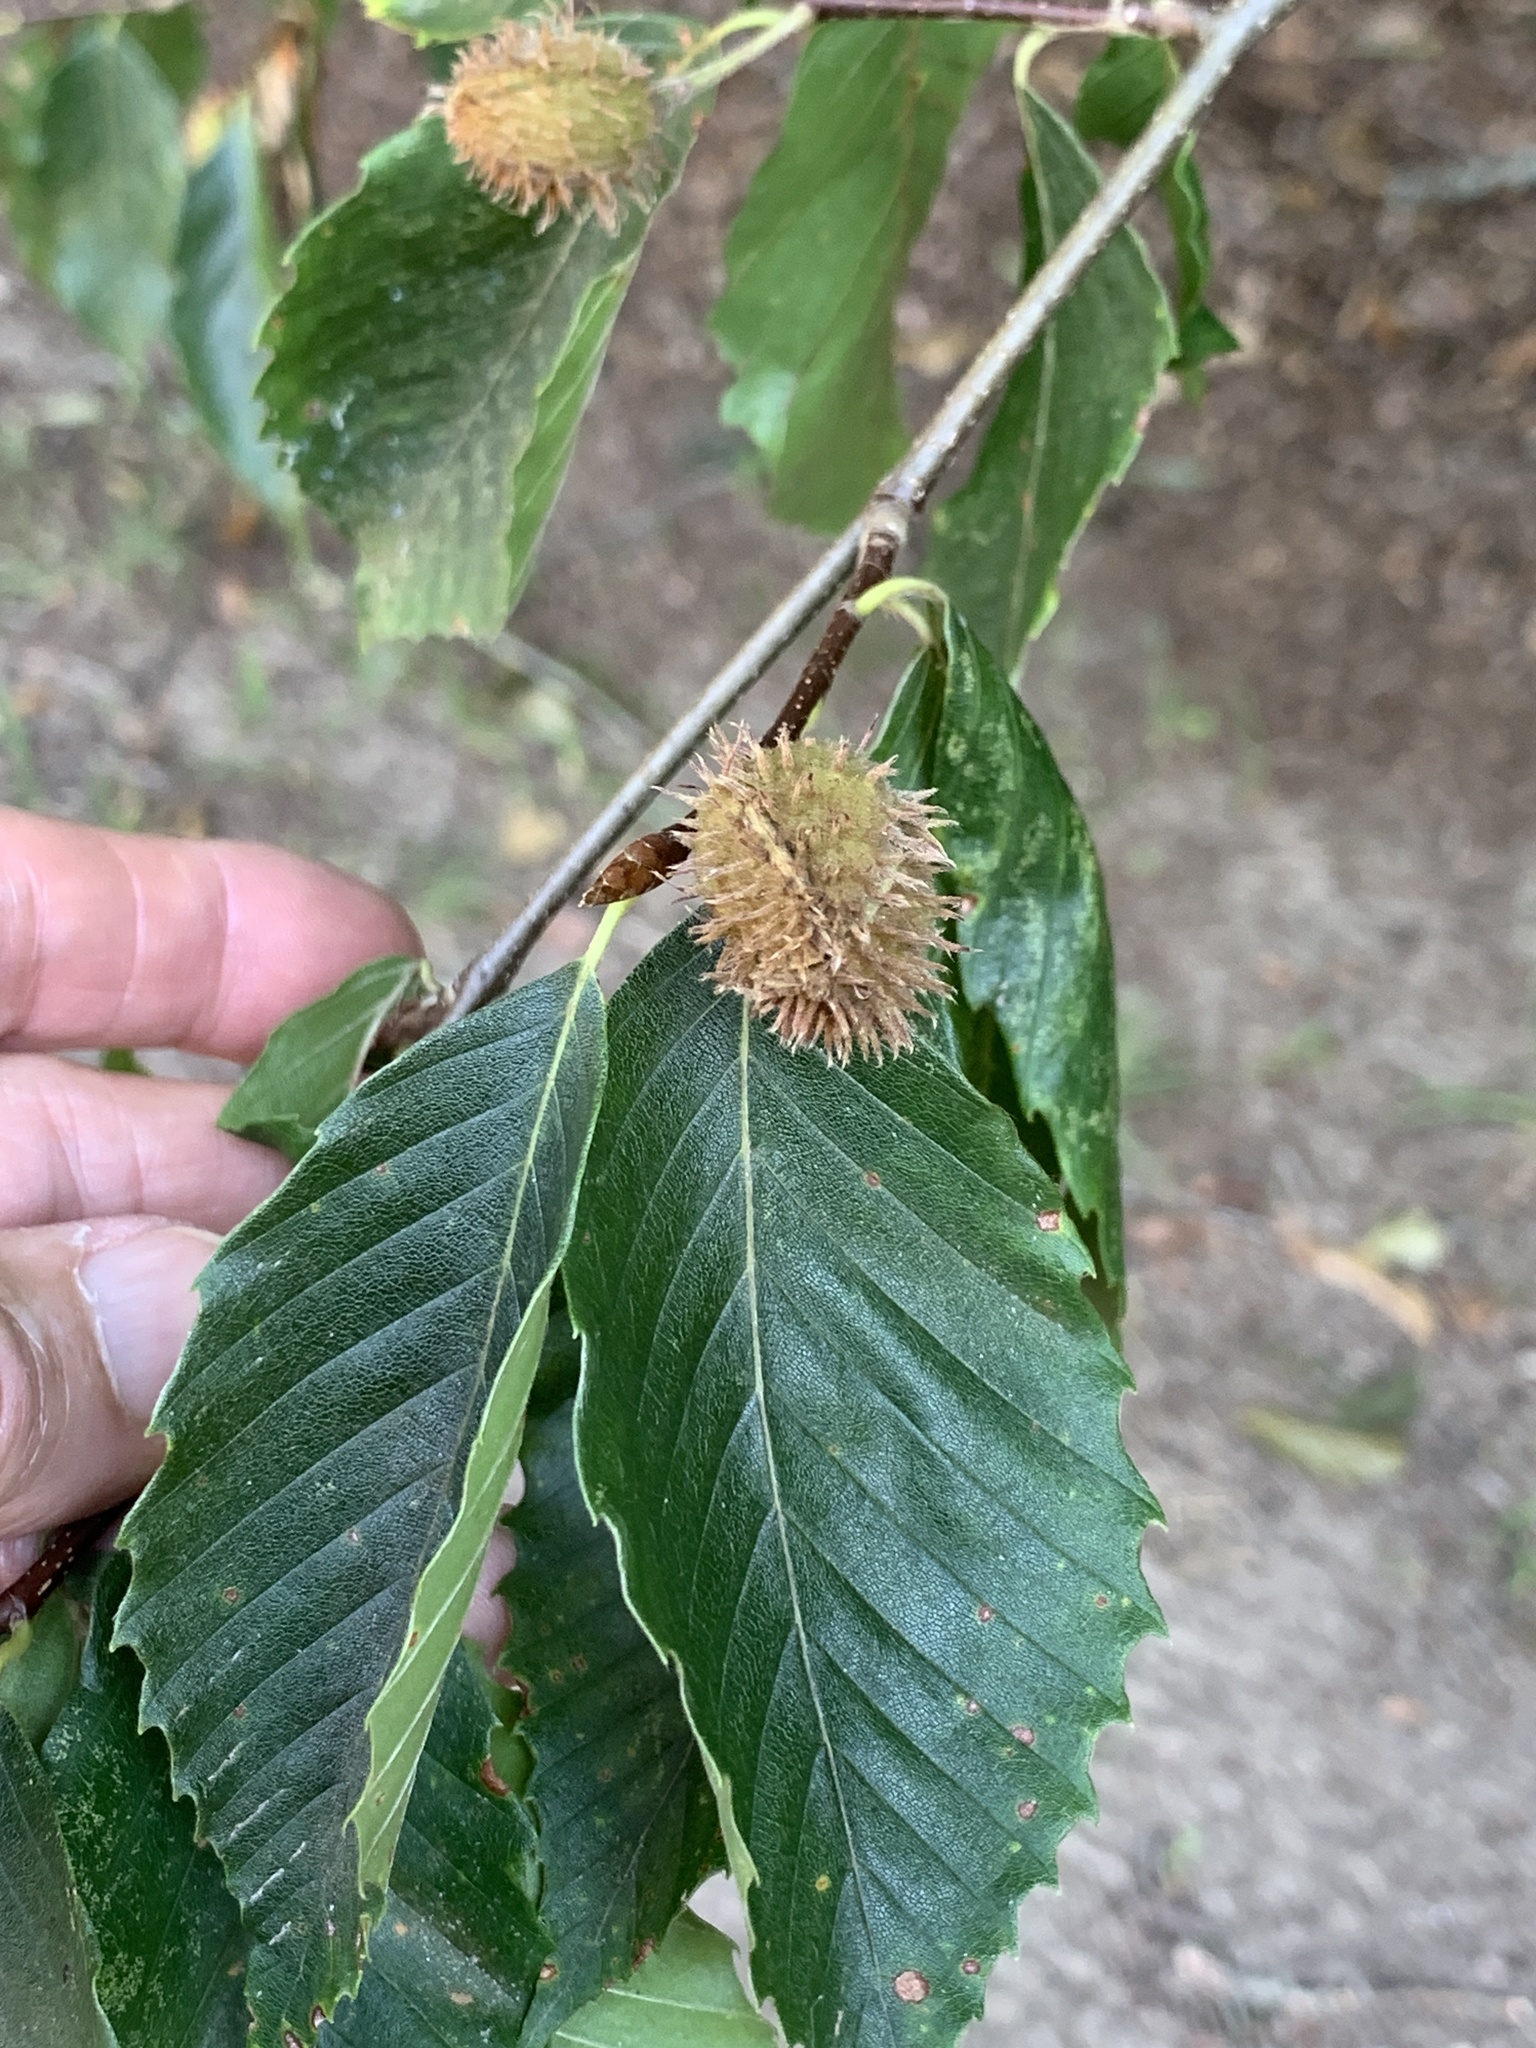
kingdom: Plantae
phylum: Tracheophyta
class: Magnoliopsida
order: Fagales
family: Fagaceae
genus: Fagus
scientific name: Fagus grandifolia
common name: American beech
